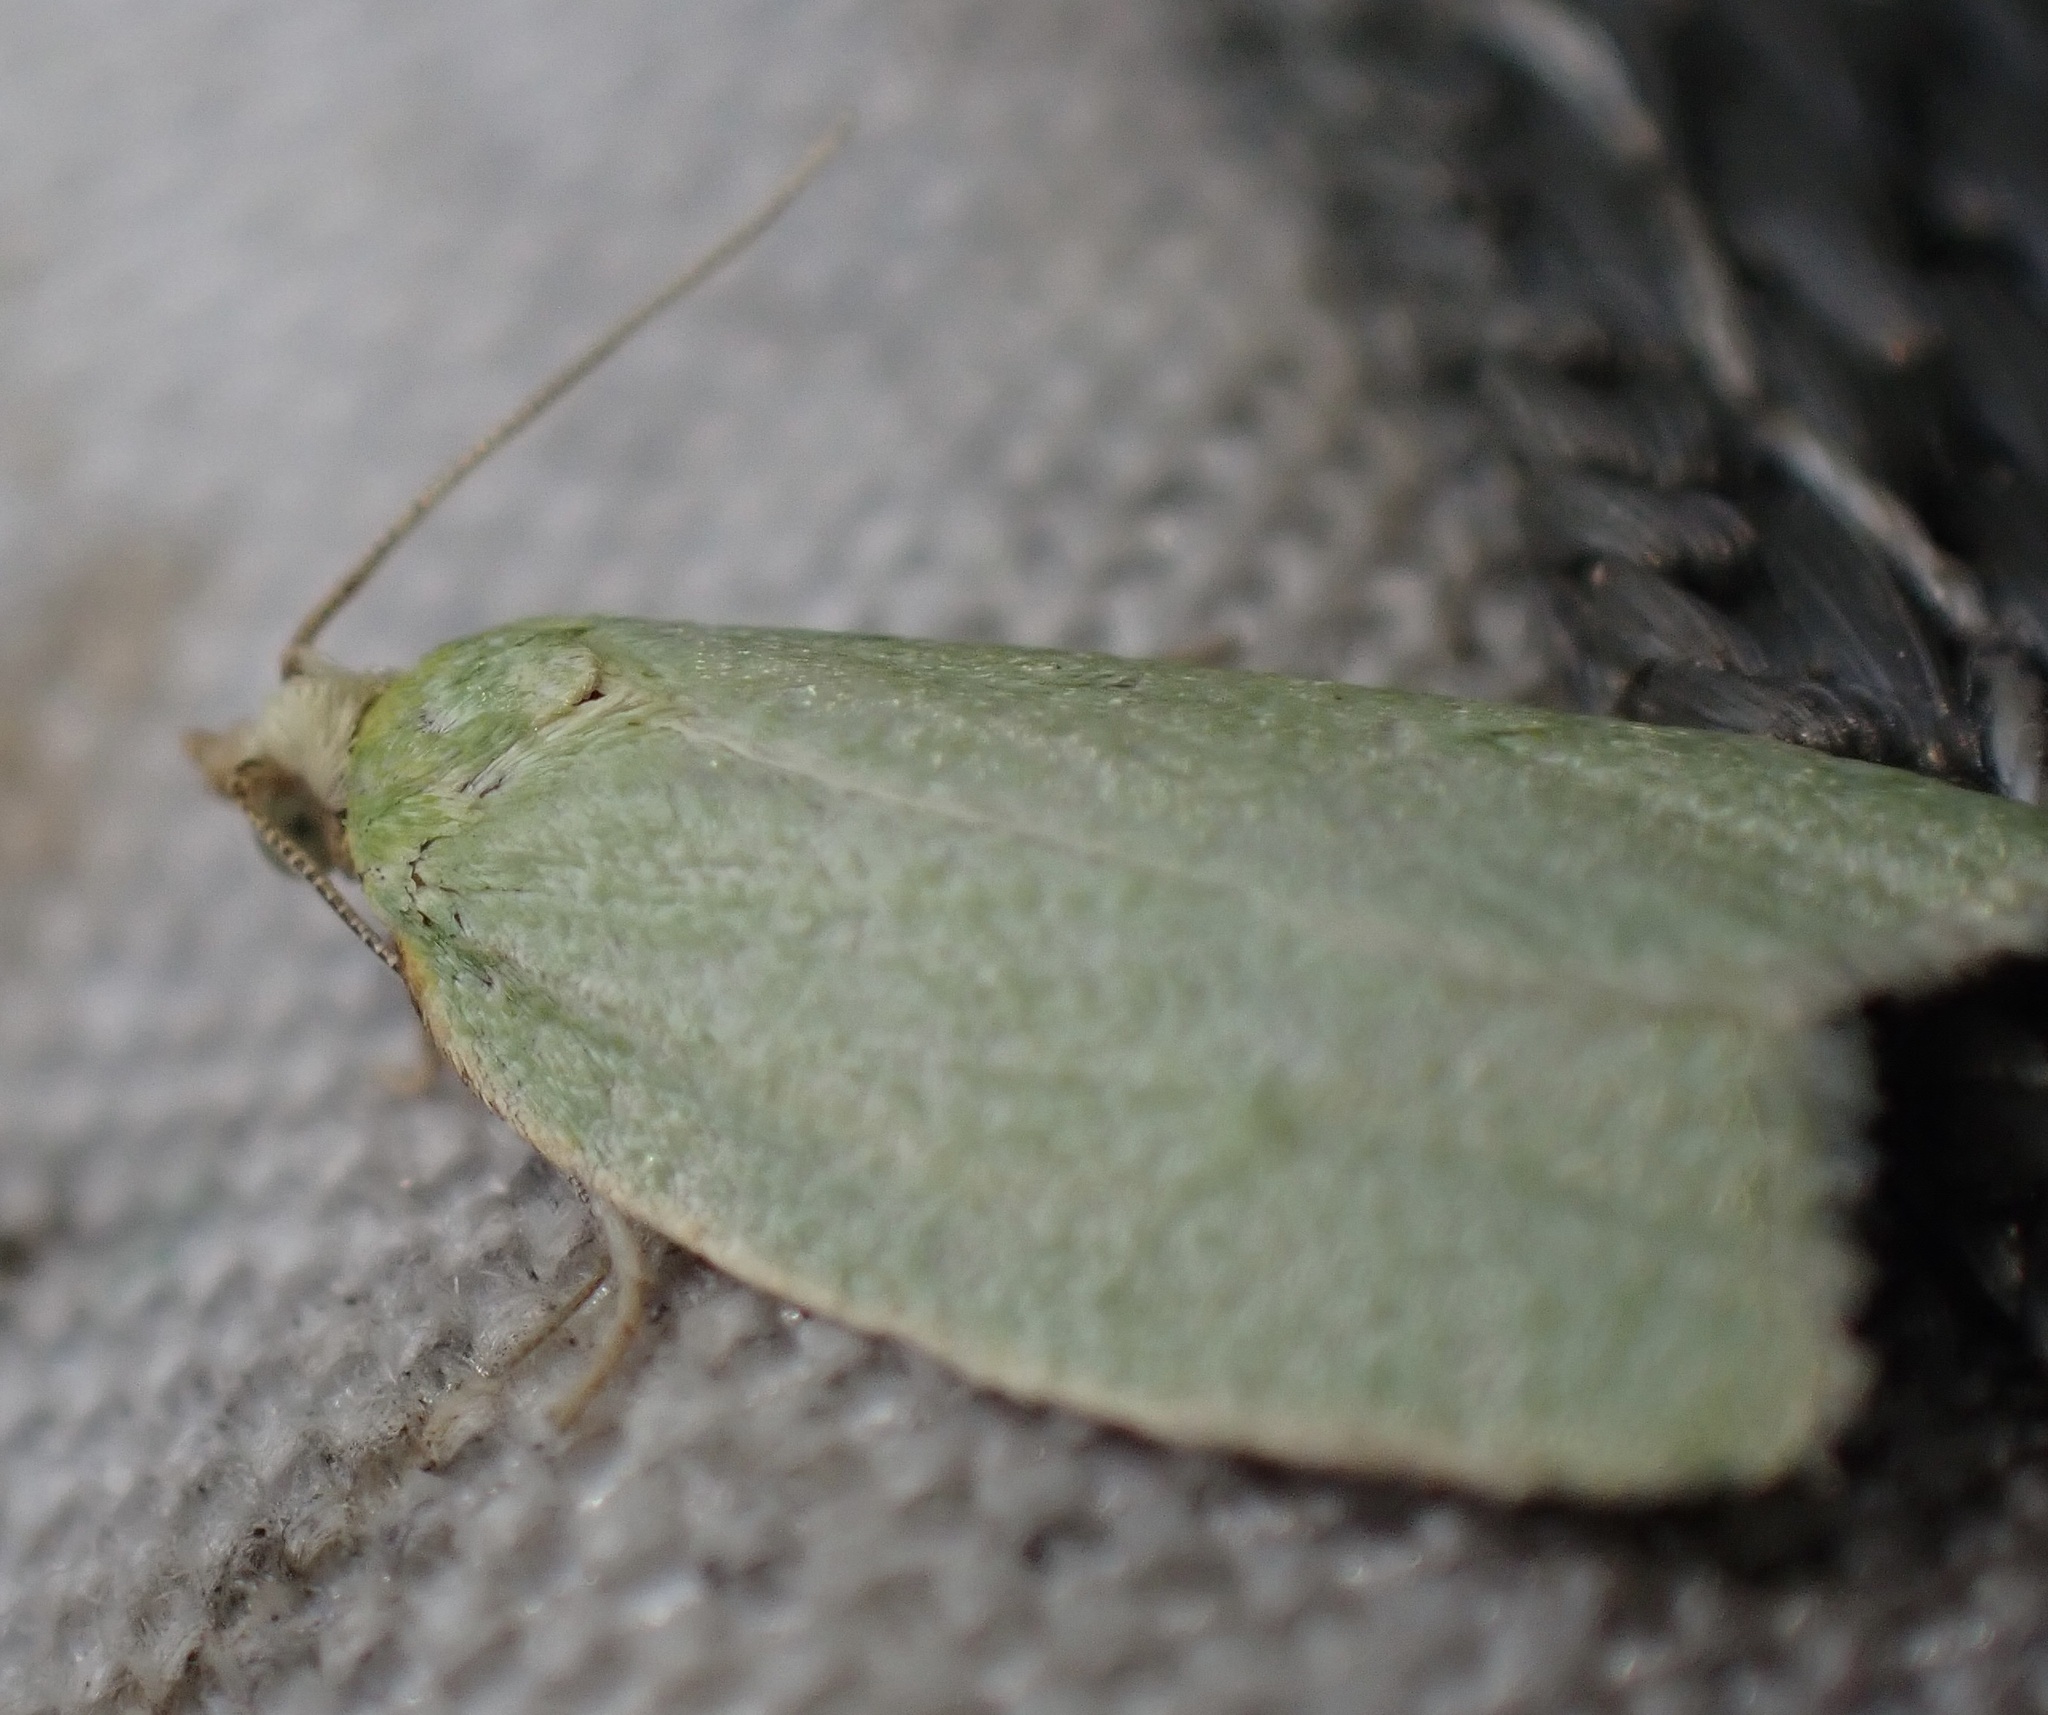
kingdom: Animalia
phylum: Arthropoda
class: Insecta
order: Lepidoptera
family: Tortricidae
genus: Tortrix
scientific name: Tortrix viridana
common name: Green oak tortrix
